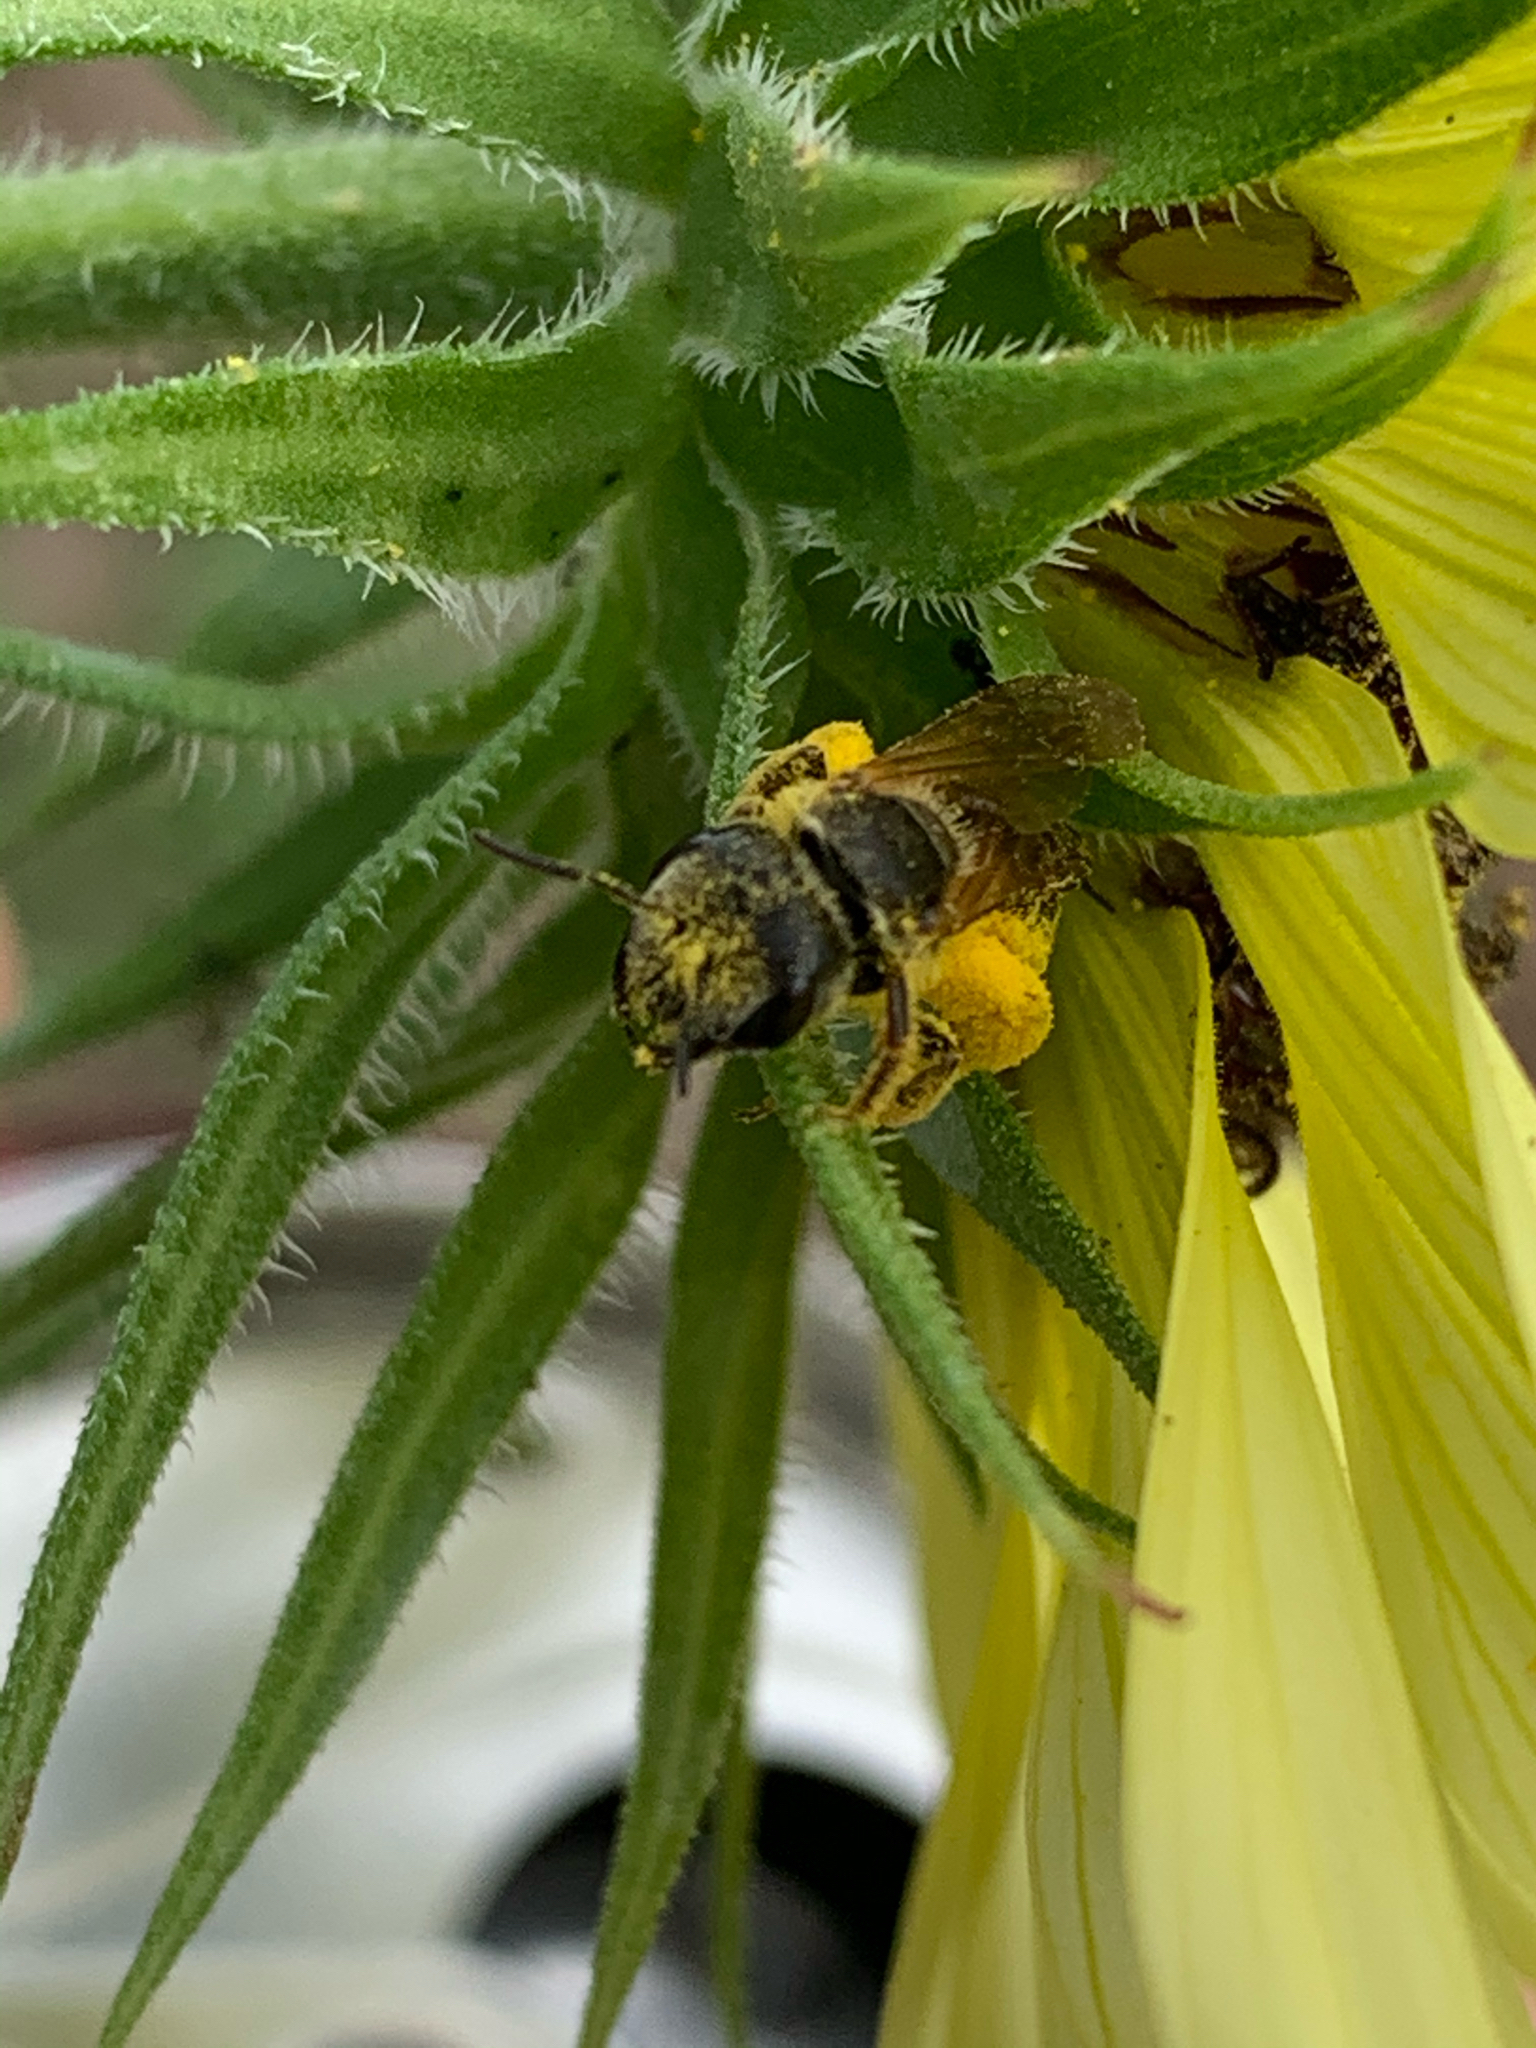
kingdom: Animalia
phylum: Arthropoda
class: Insecta
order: Hymenoptera
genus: Odontalictus
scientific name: Odontalictus
